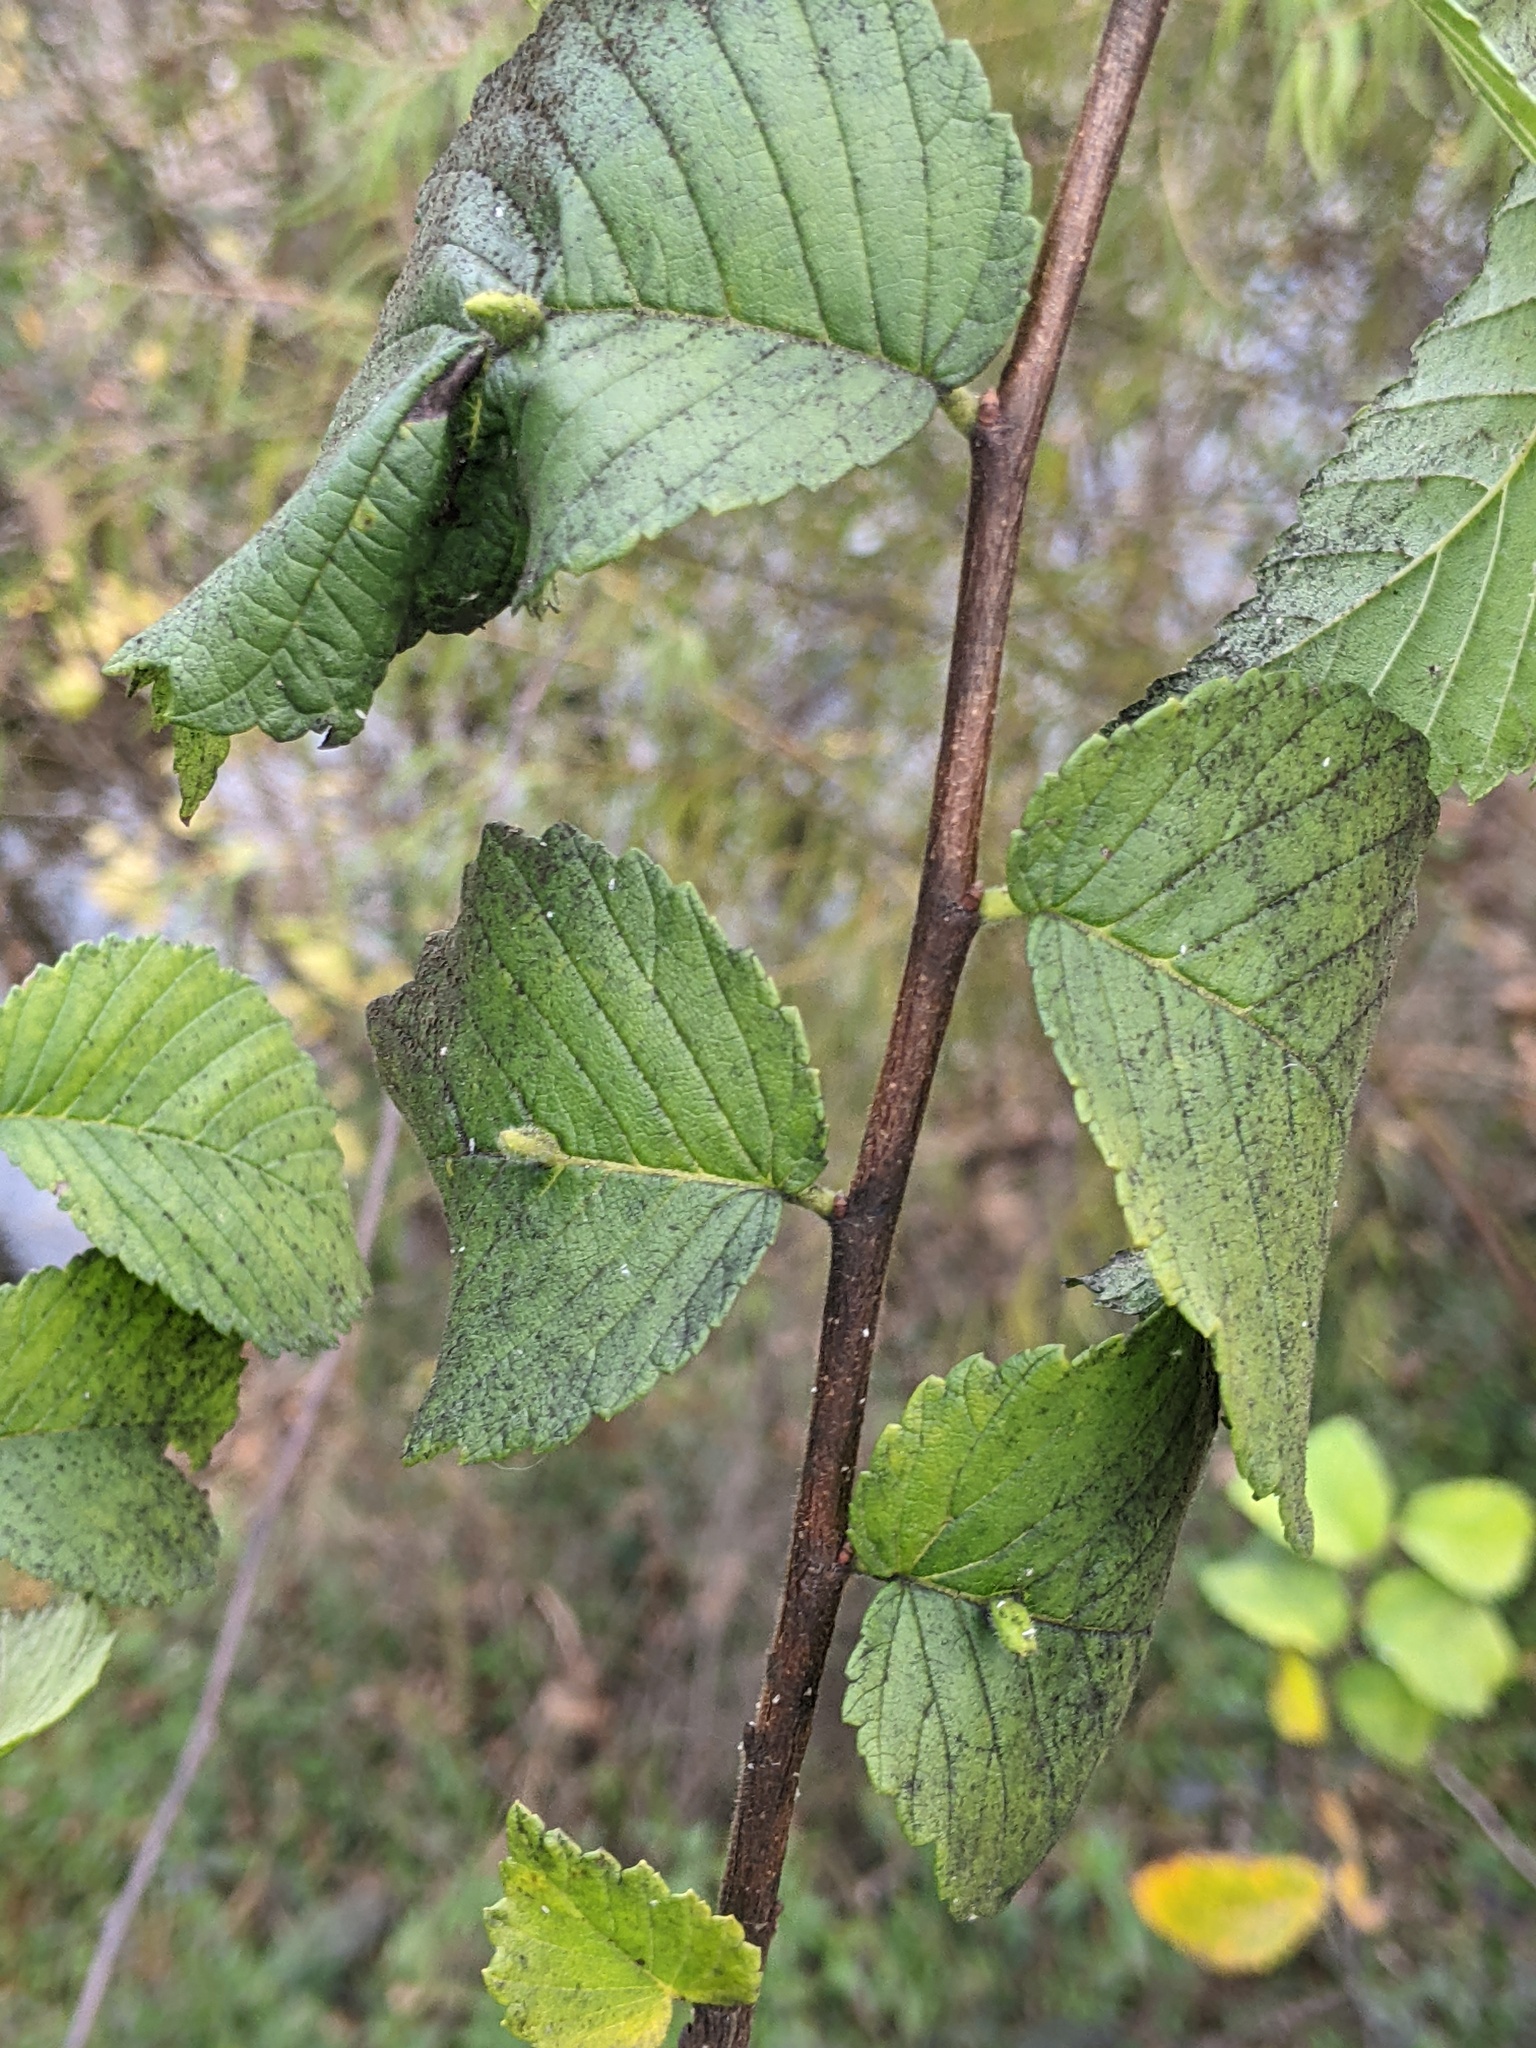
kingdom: Animalia
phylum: Arthropoda
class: Arachnida
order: Trombidiformes
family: Eriophyidae
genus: Aceria
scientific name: Aceria
